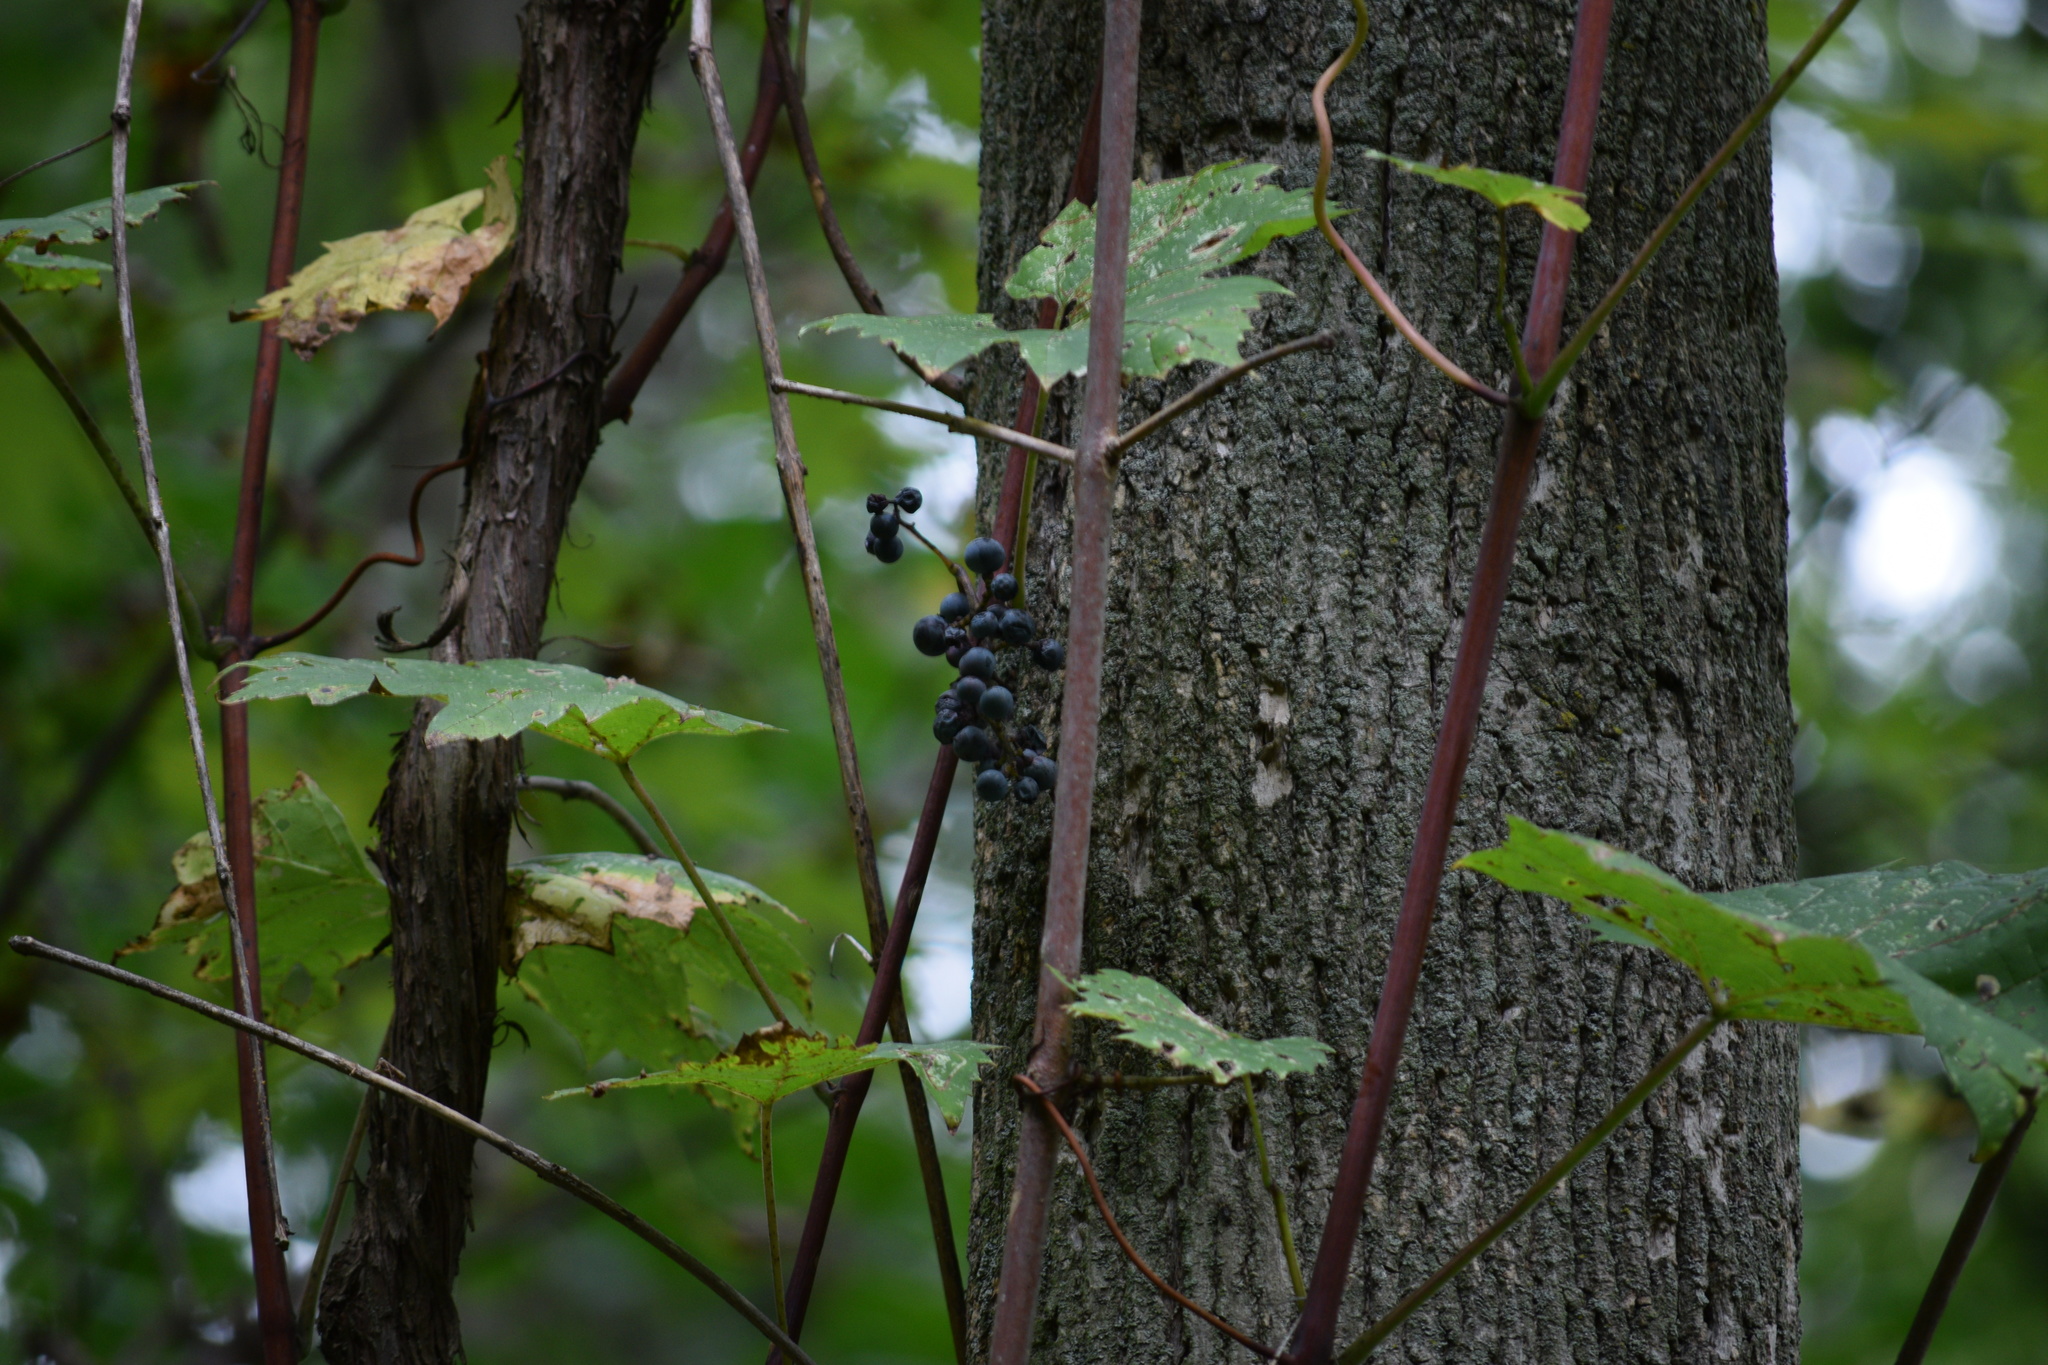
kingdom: Plantae
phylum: Tracheophyta
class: Magnoliopsida
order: Vitales
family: Vitaceae
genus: Vitis
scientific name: Vitis riparia
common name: Frost grape
